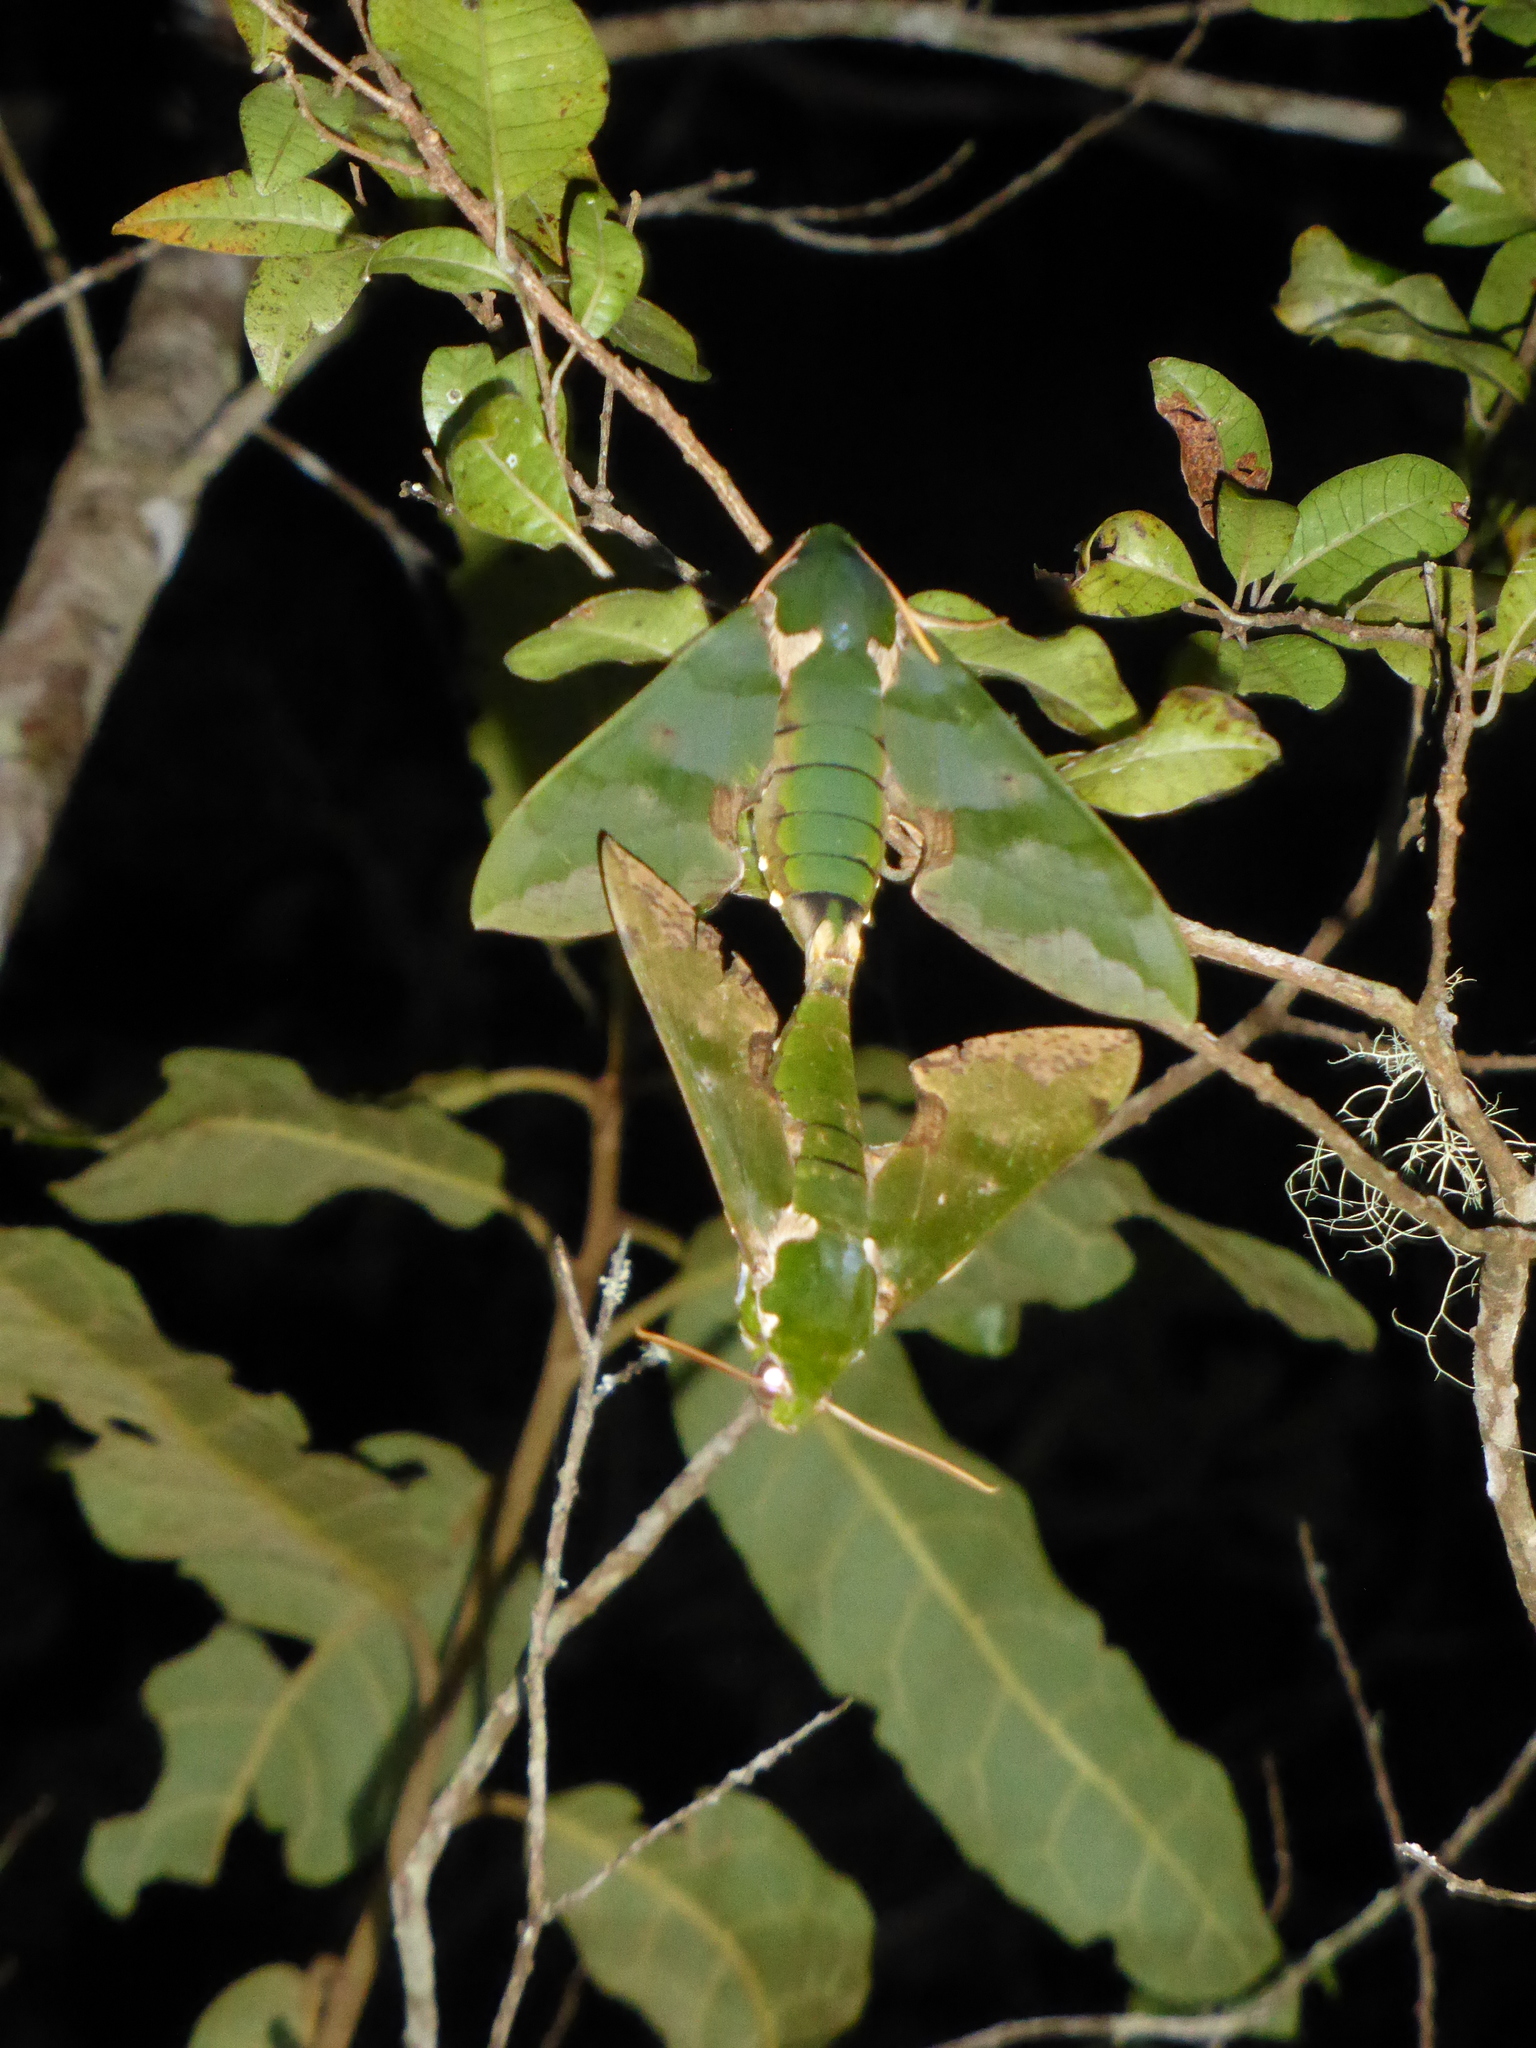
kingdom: Animalia
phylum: Arthropoda
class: Insecta
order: Lepidoptera
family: Sphingidae
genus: Euchloron
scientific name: Euchloron megaera
